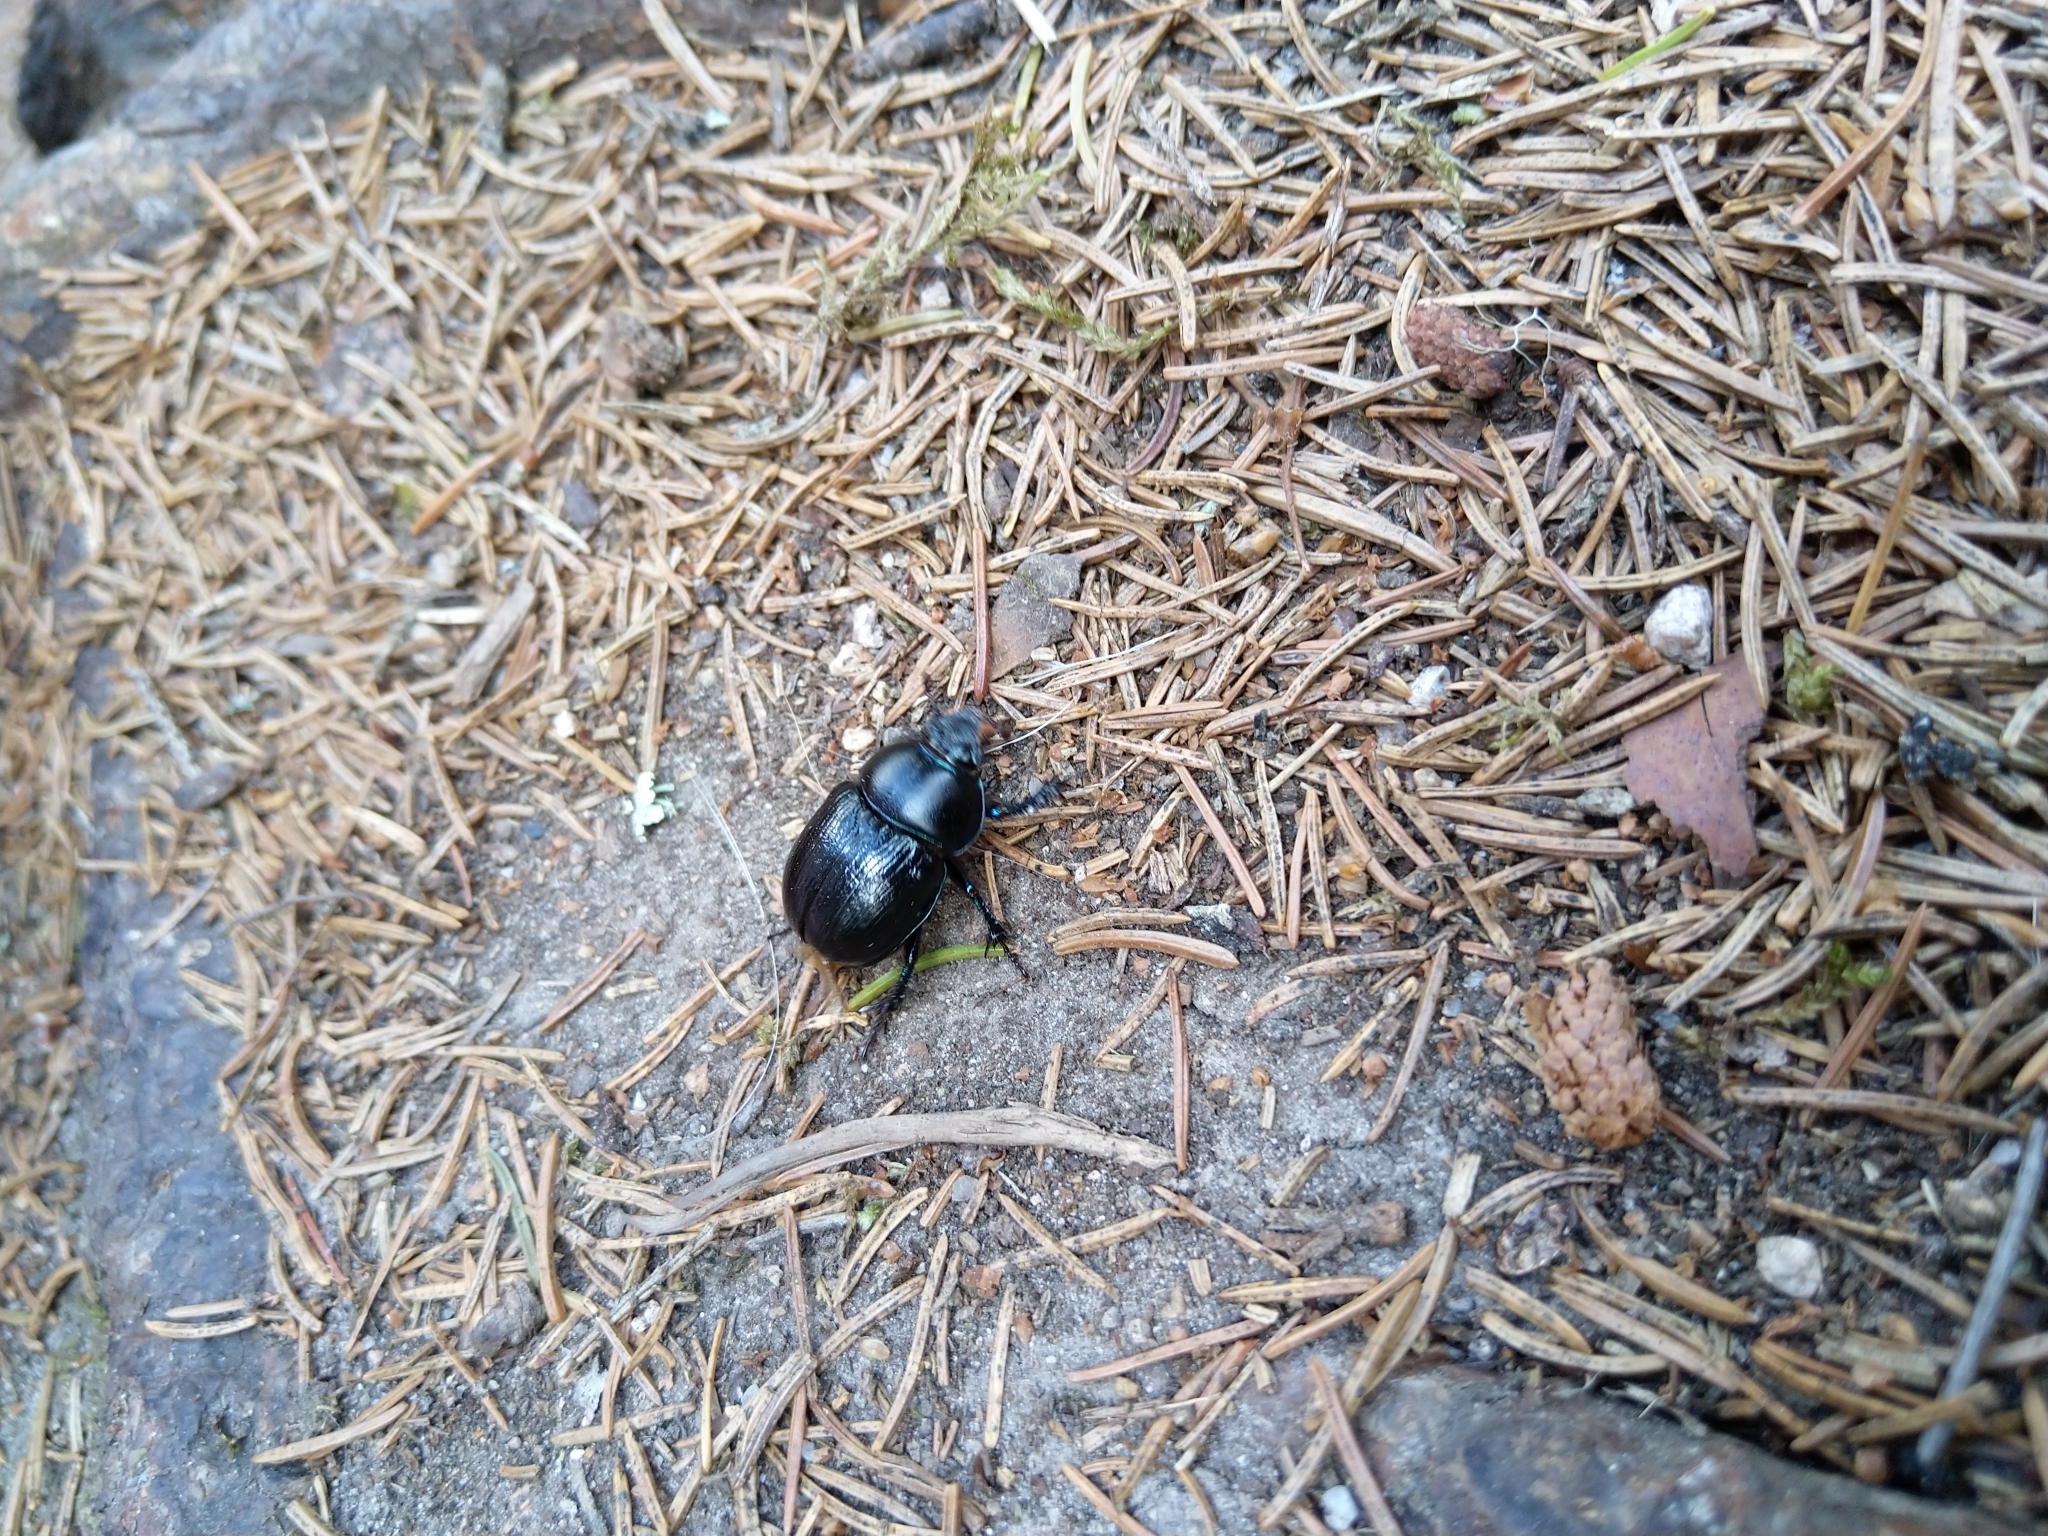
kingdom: Animalia
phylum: Arthropoda
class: Insecta
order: Coleoptera
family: Geotrupidae
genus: Anoplotrupes
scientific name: Anoplotrupes stercorosus
